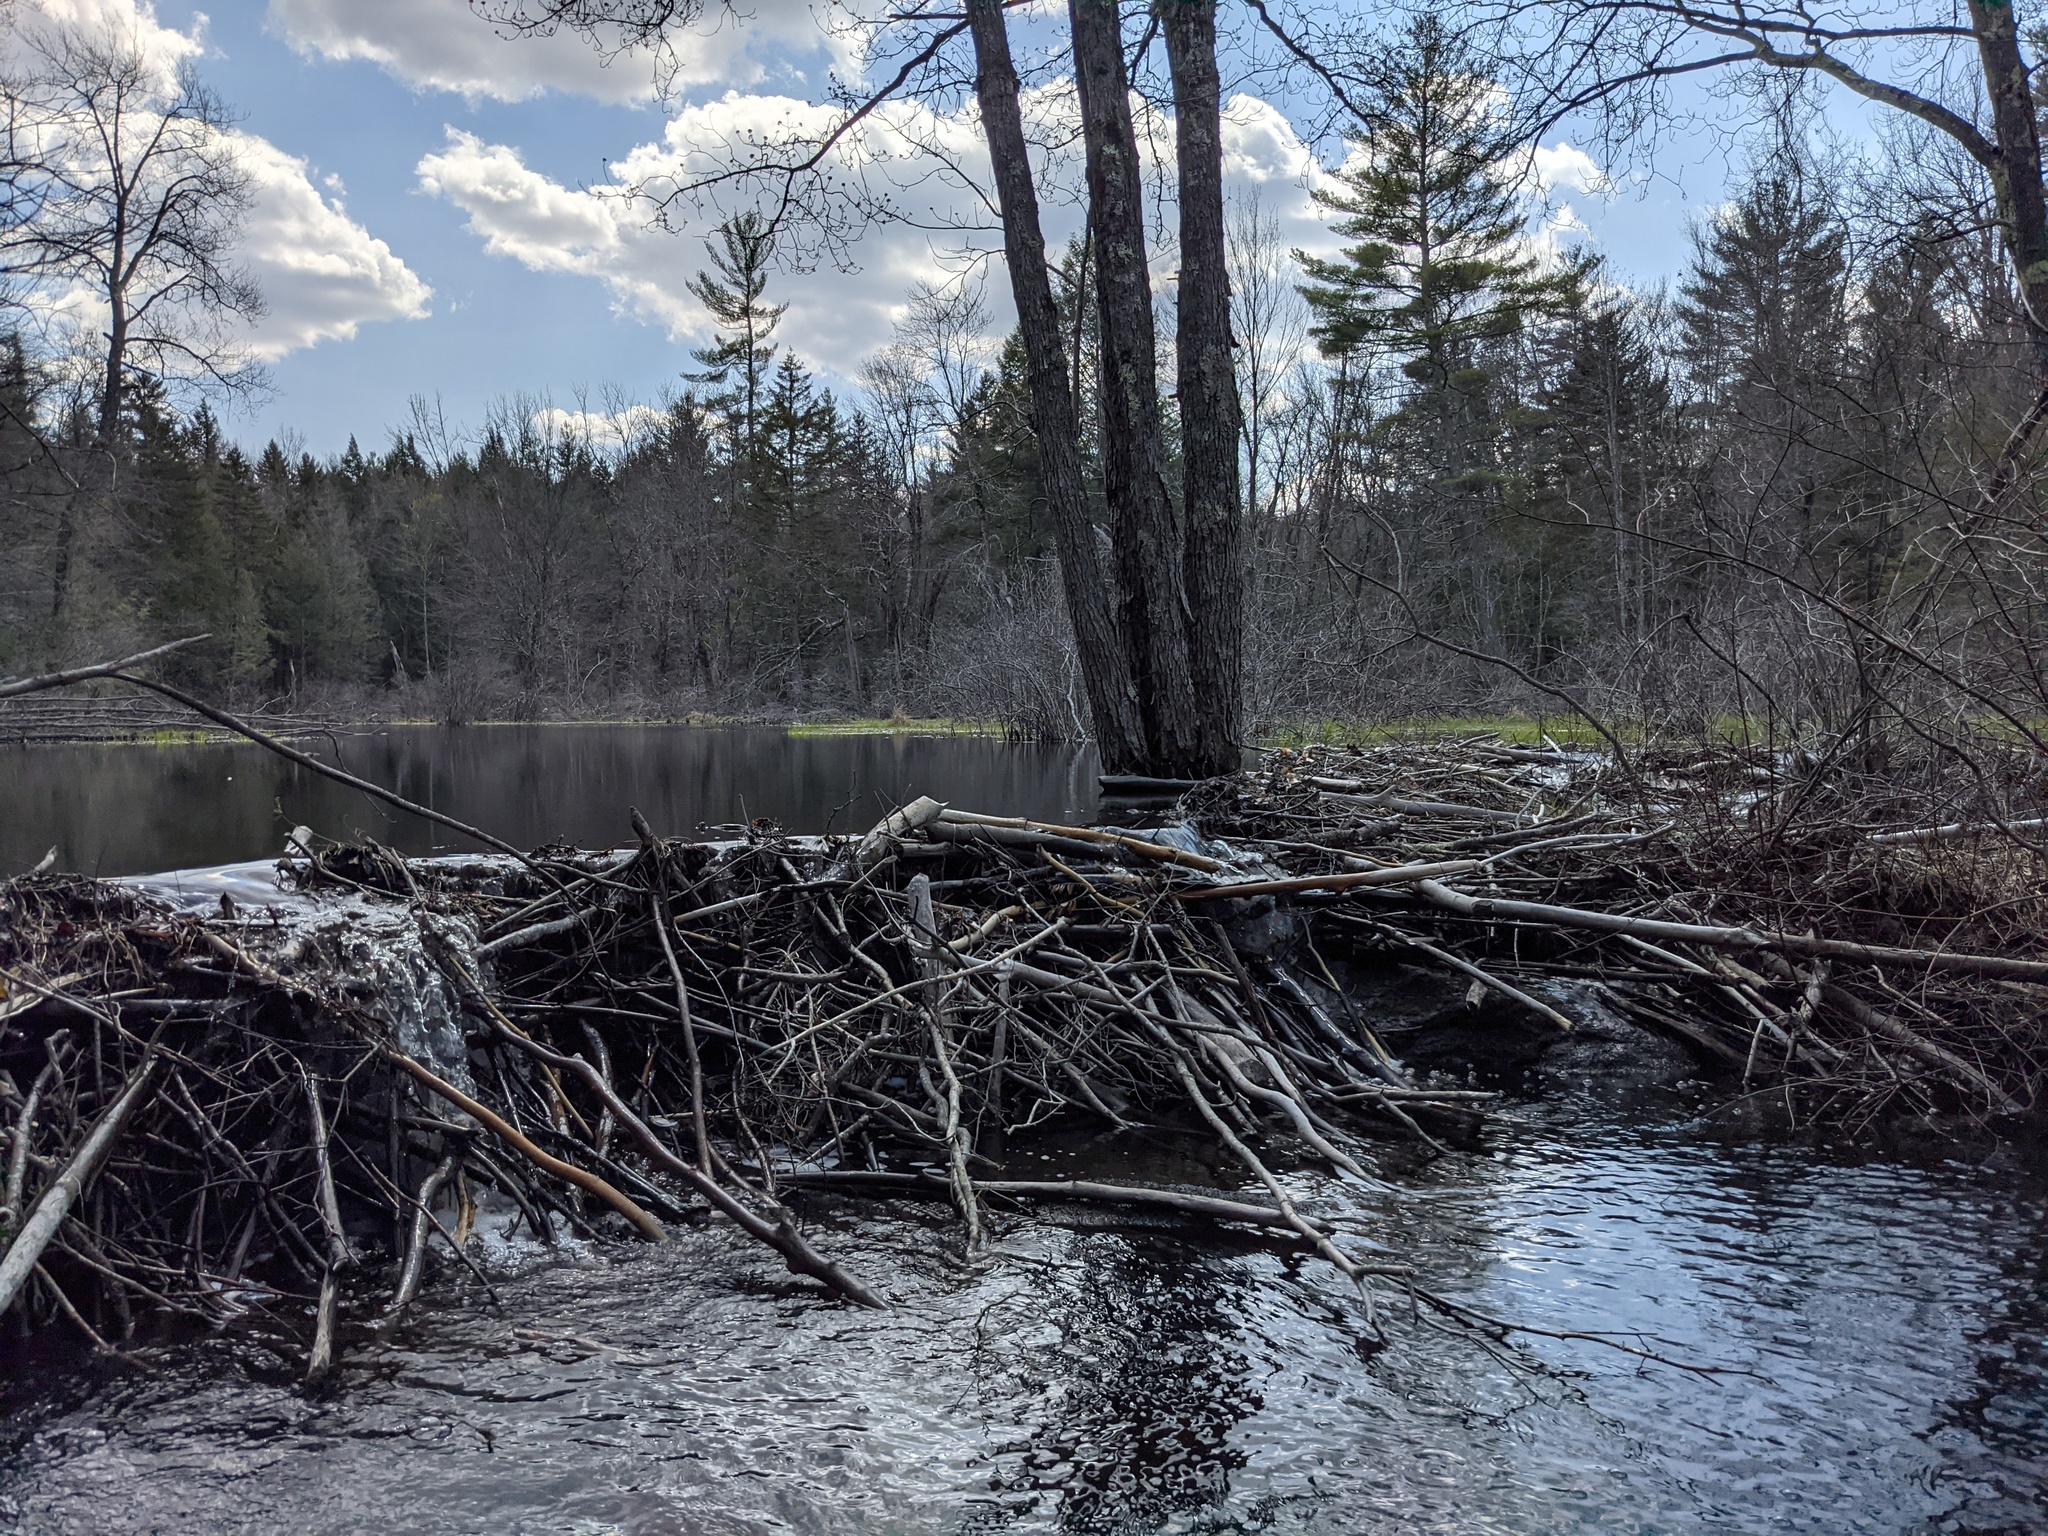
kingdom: Animalia
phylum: Chordata
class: Mammalia
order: Rodentia
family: Castoridae
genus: Castor
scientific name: Castor canadensis
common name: American beaver
